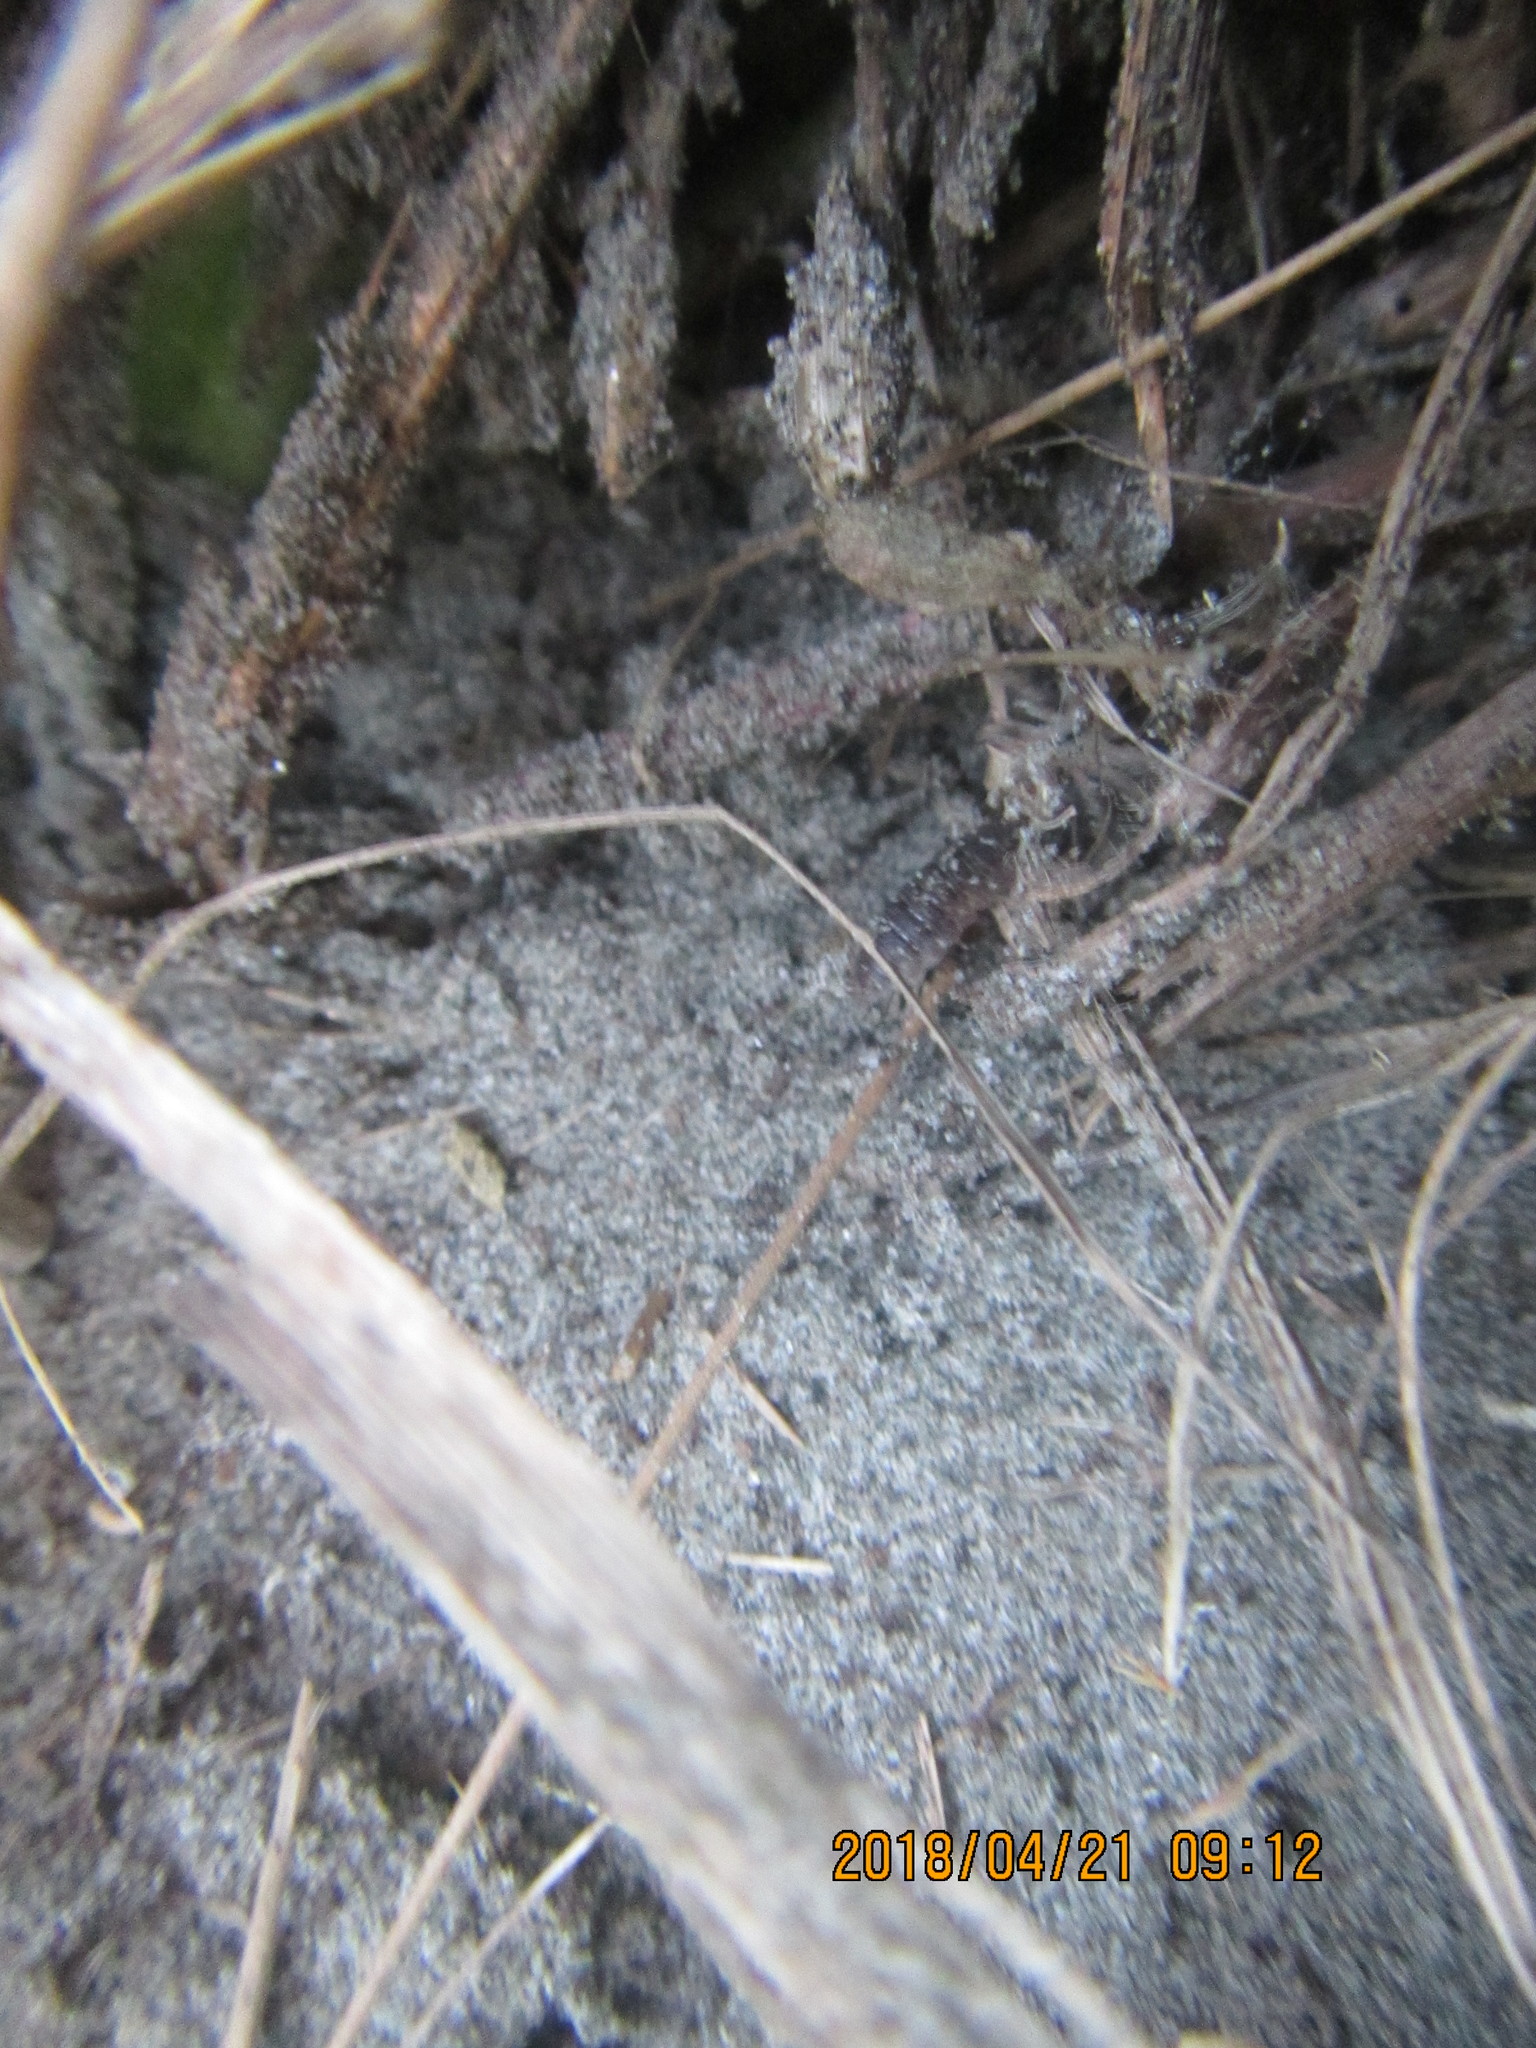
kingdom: Animalia
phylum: Arthropoda
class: Arachnida
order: Araneae
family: Thomisidae
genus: Sidymella
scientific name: Sidymella trapezia
